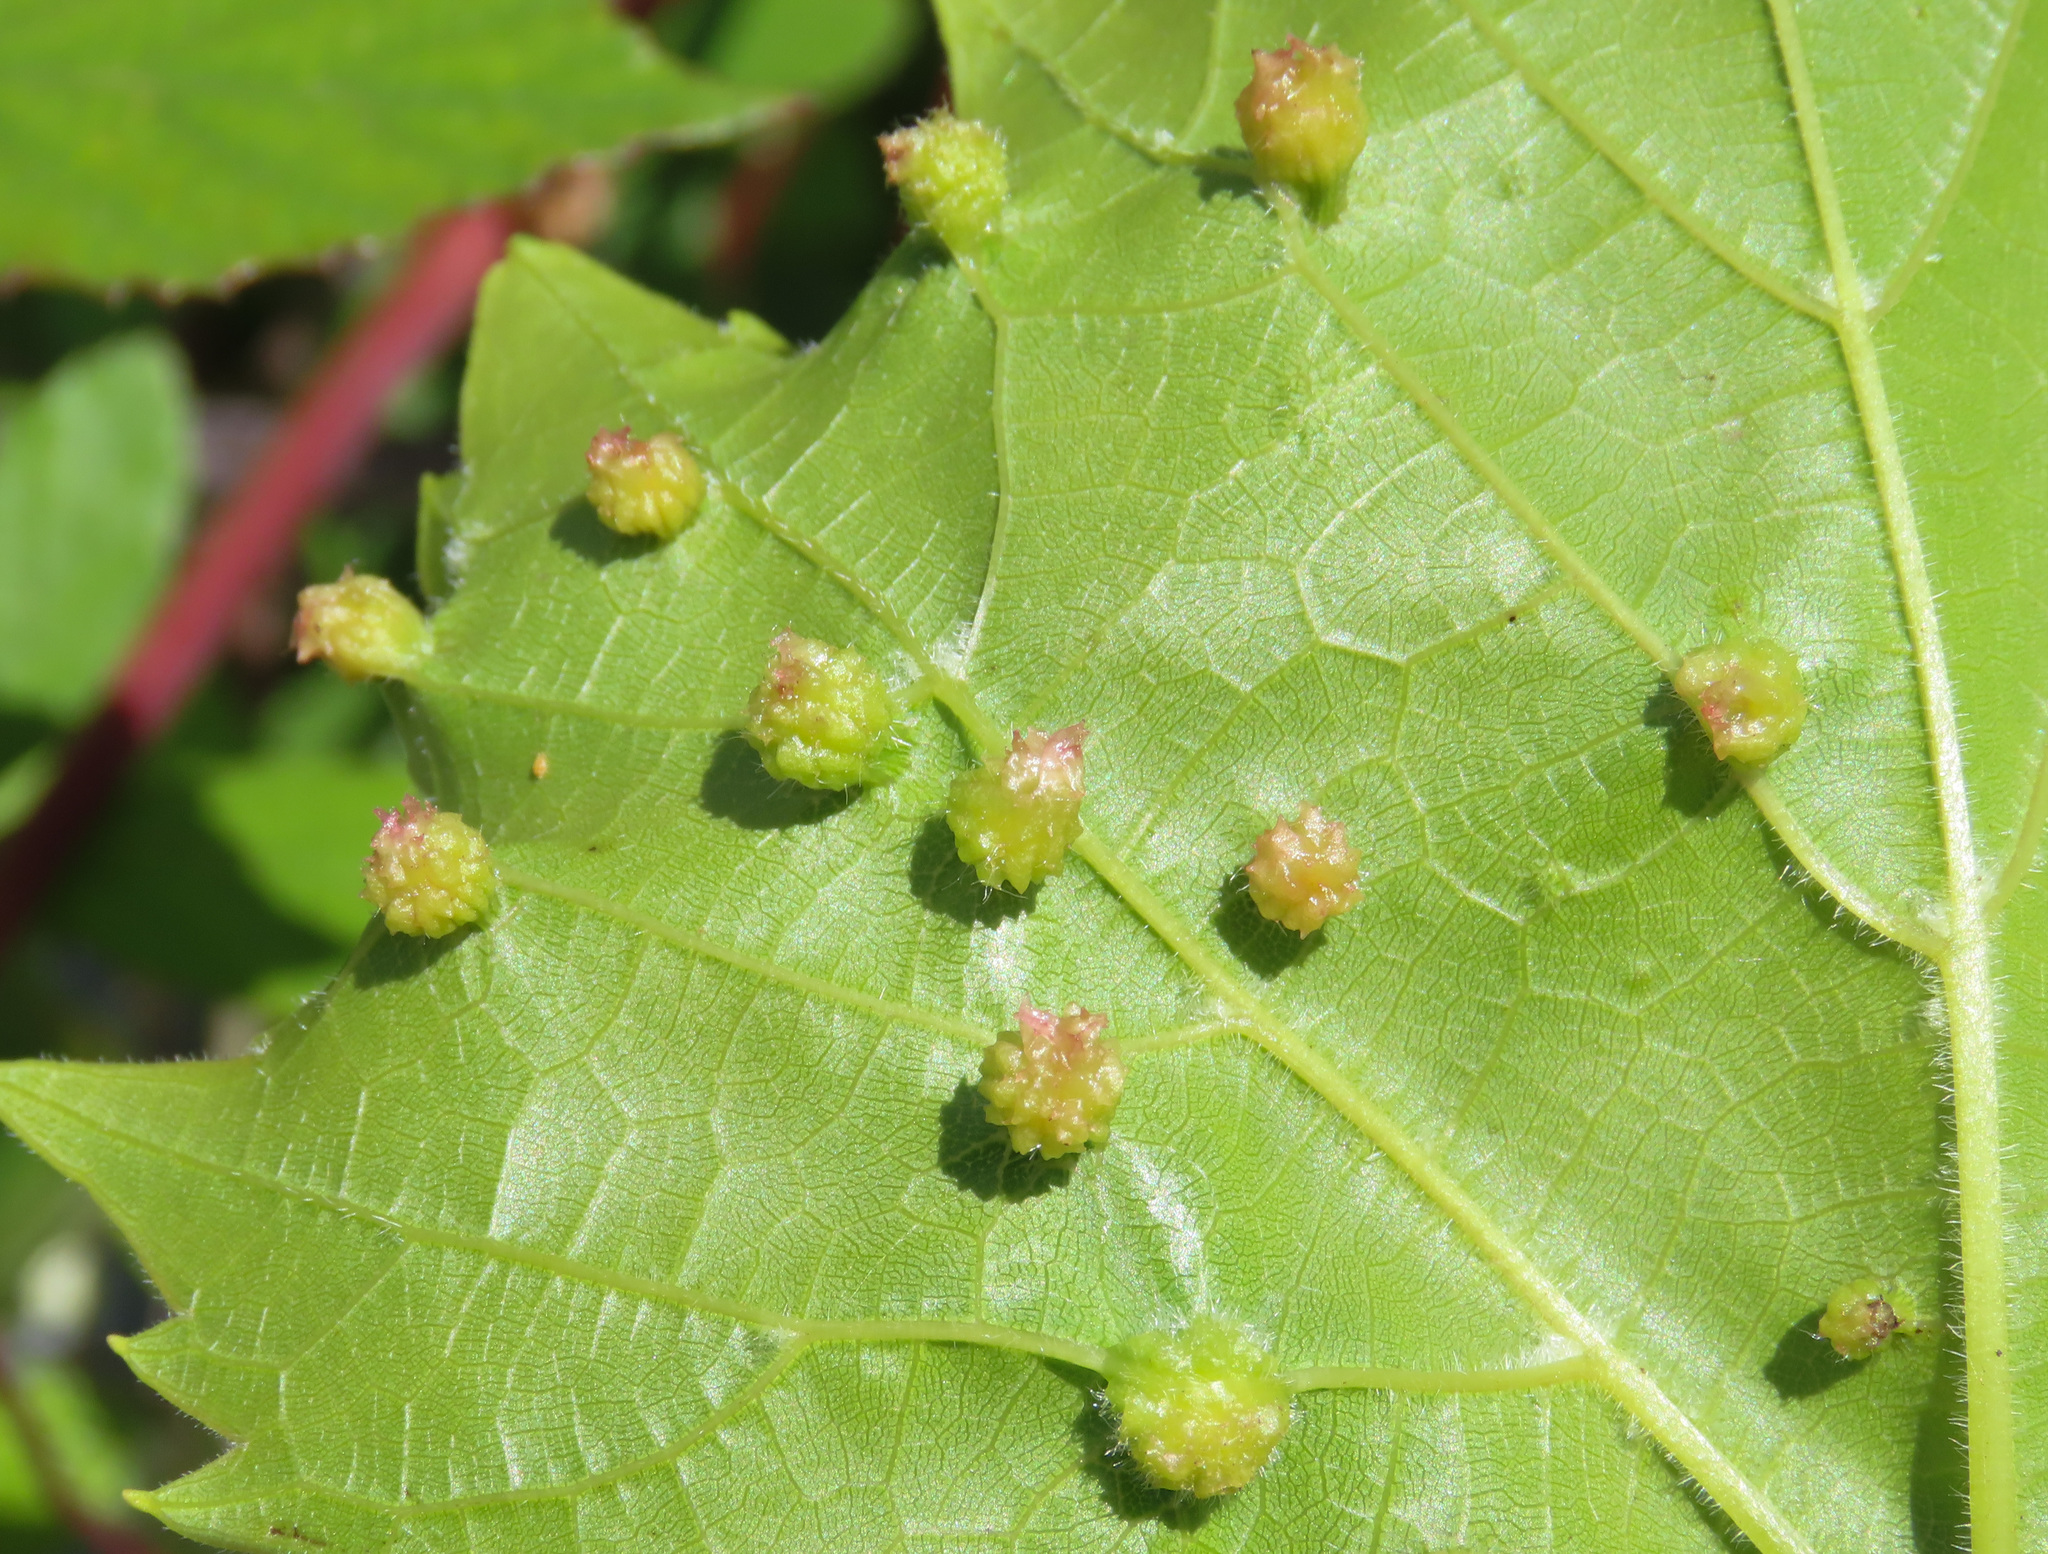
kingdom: Animalia
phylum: Arthropoda
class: Insecta
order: Hemiptera
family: Phylloxeridae
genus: Daktulosphaira
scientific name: Daktulosphaira vitifoliae
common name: Grape phylloxera
